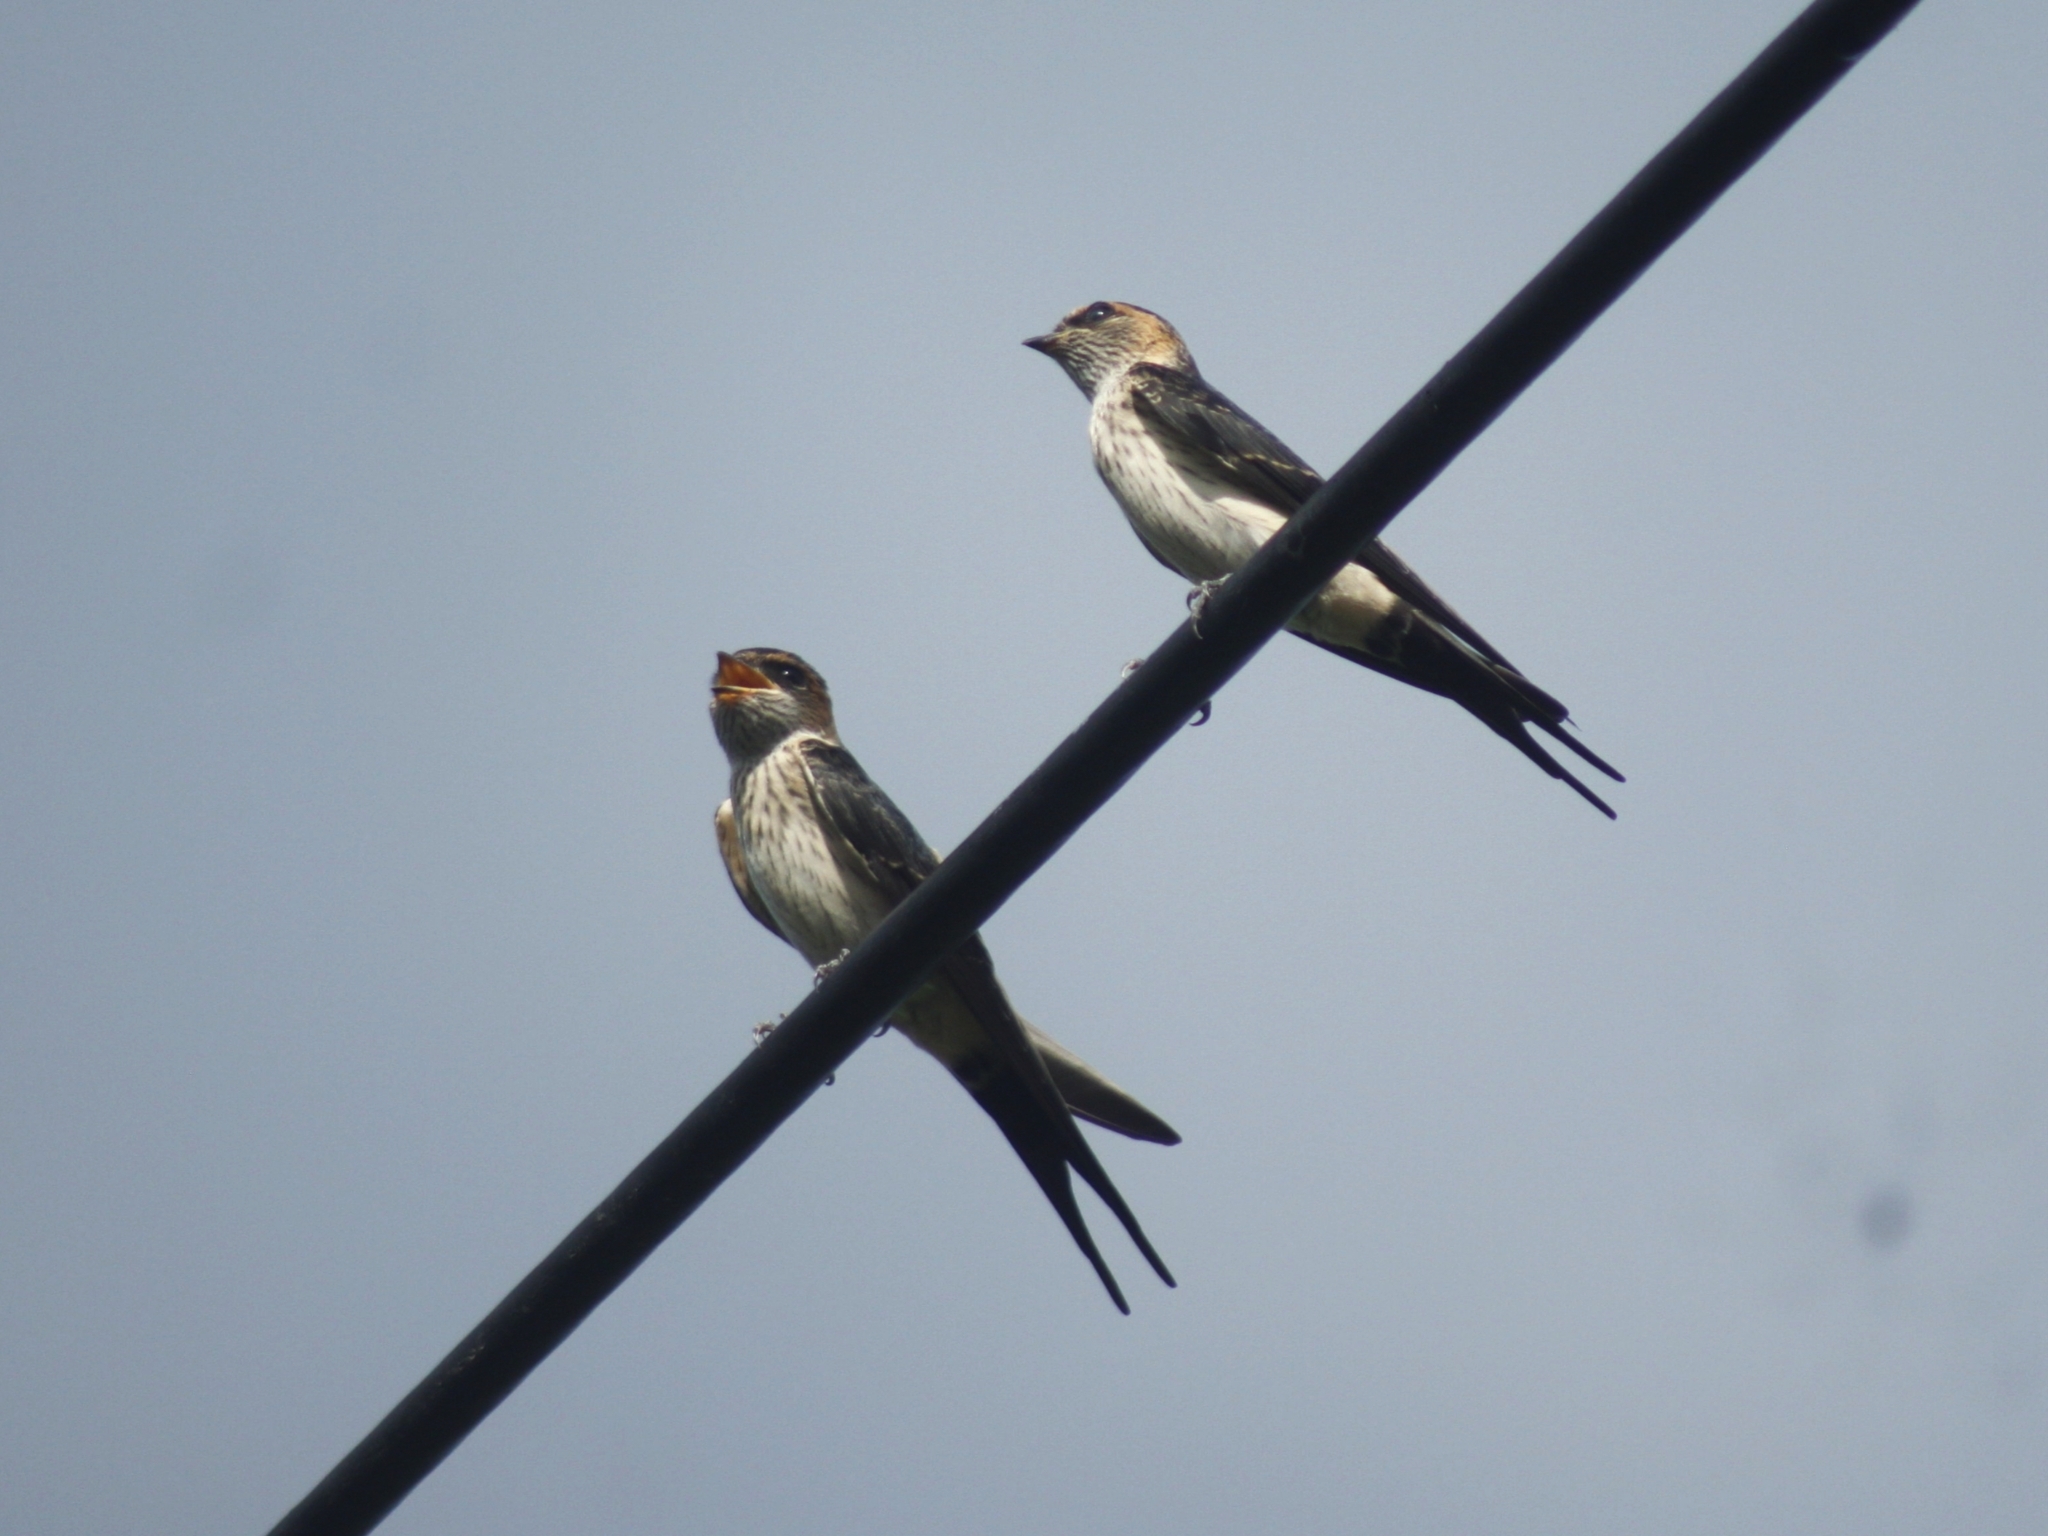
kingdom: Animalia
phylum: Chordata
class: Aves
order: Passeriformes
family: Hirundinidae
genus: Cecropis
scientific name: Cecropis striolata
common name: Striated swallow
